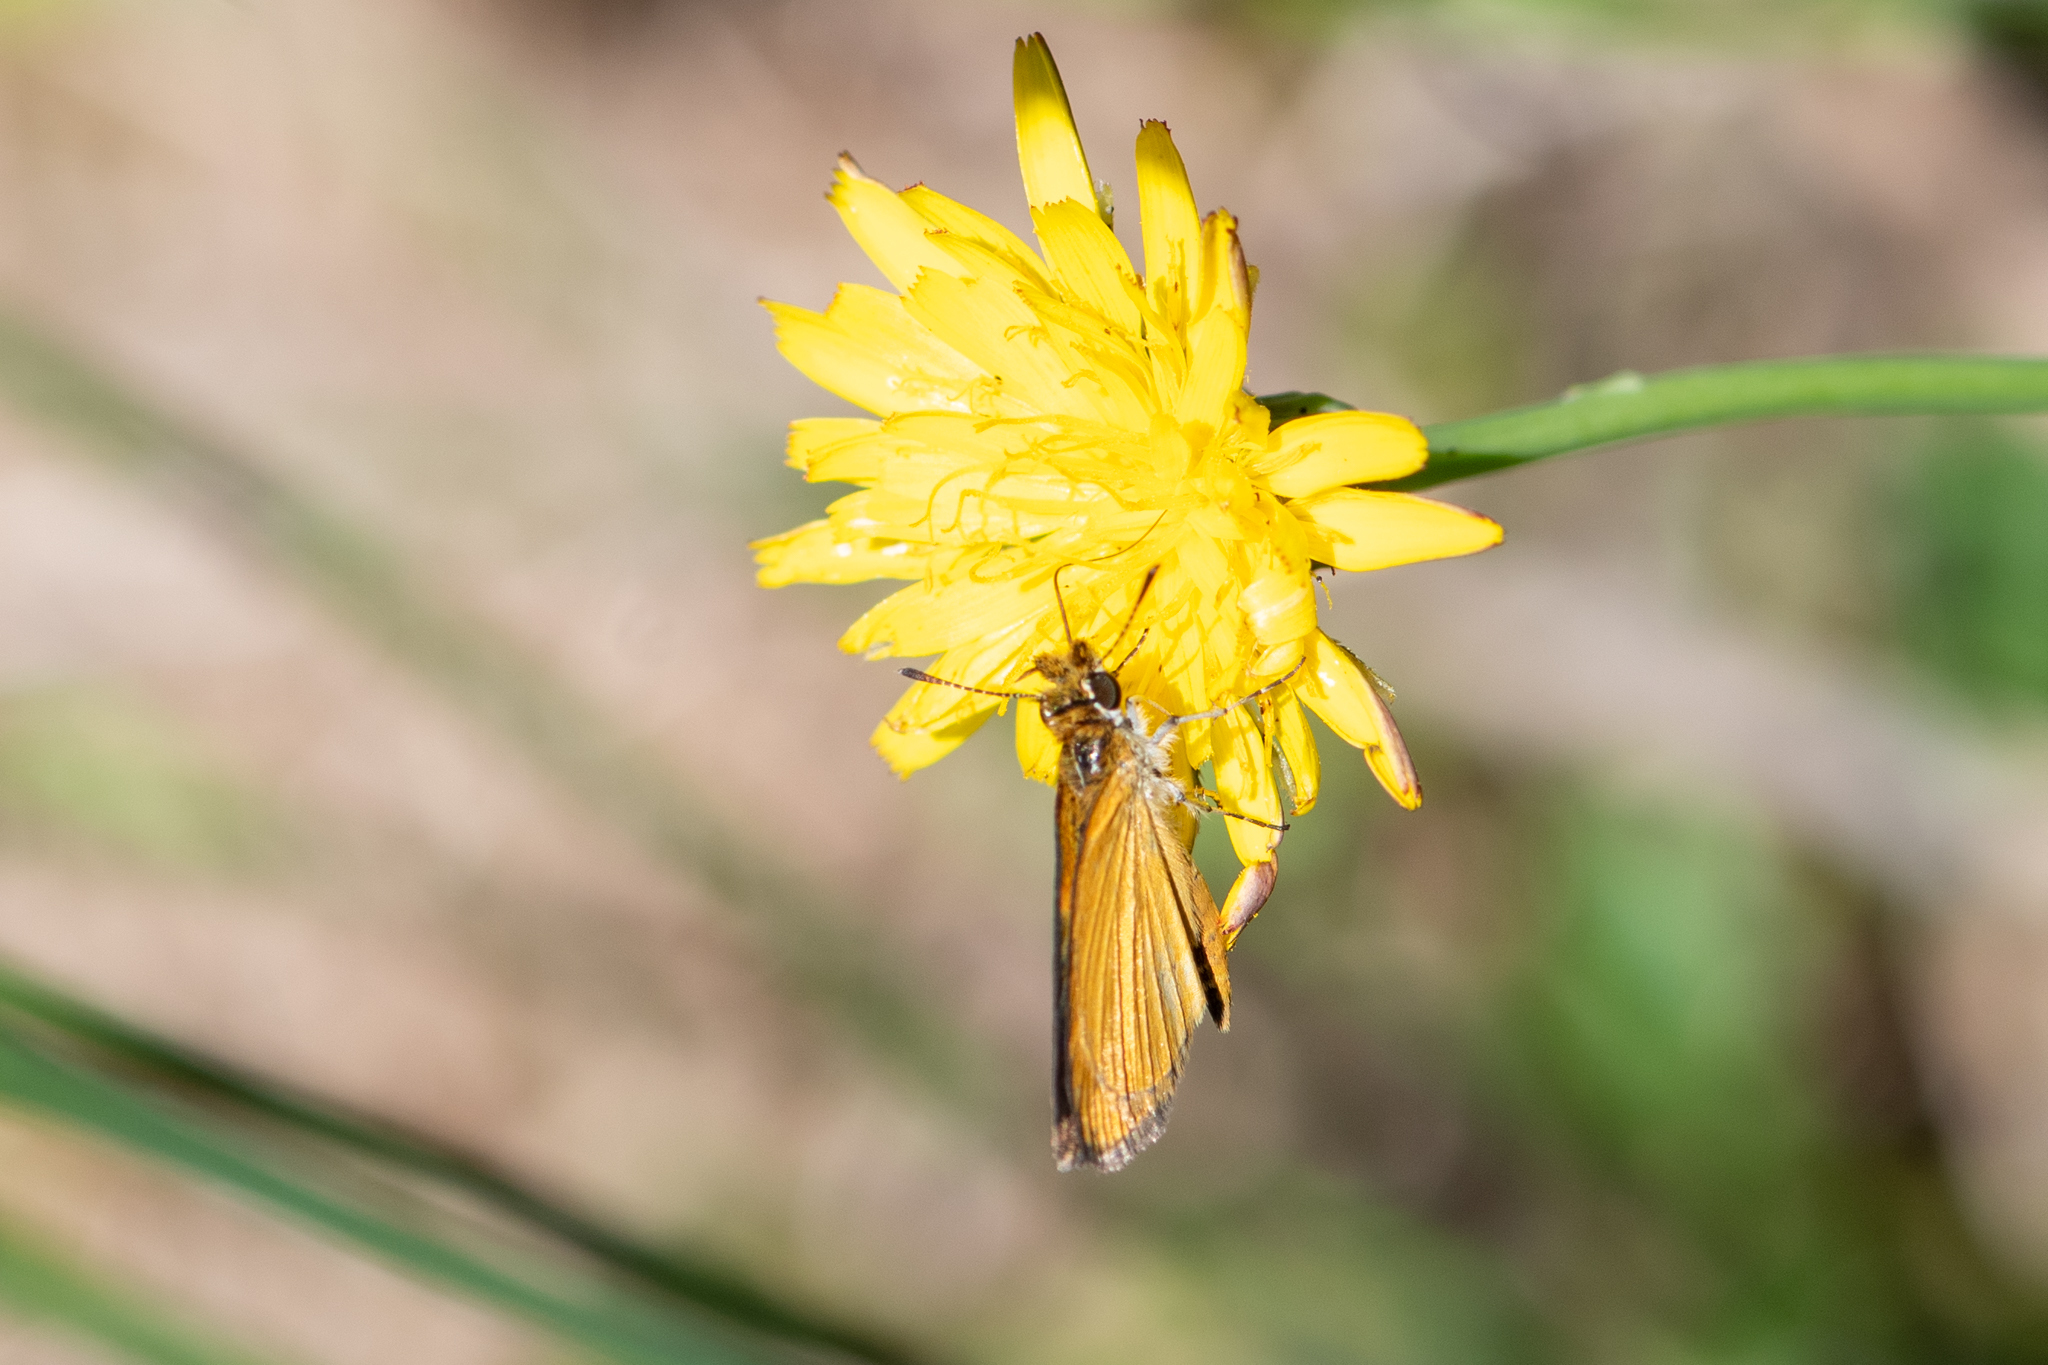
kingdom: Animalia
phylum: Arthropoda
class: Insecta
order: Lepidoptera
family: Hesperiidae
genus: Ancyloxypha
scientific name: Ancyloxypha numitor
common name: Least skipper
